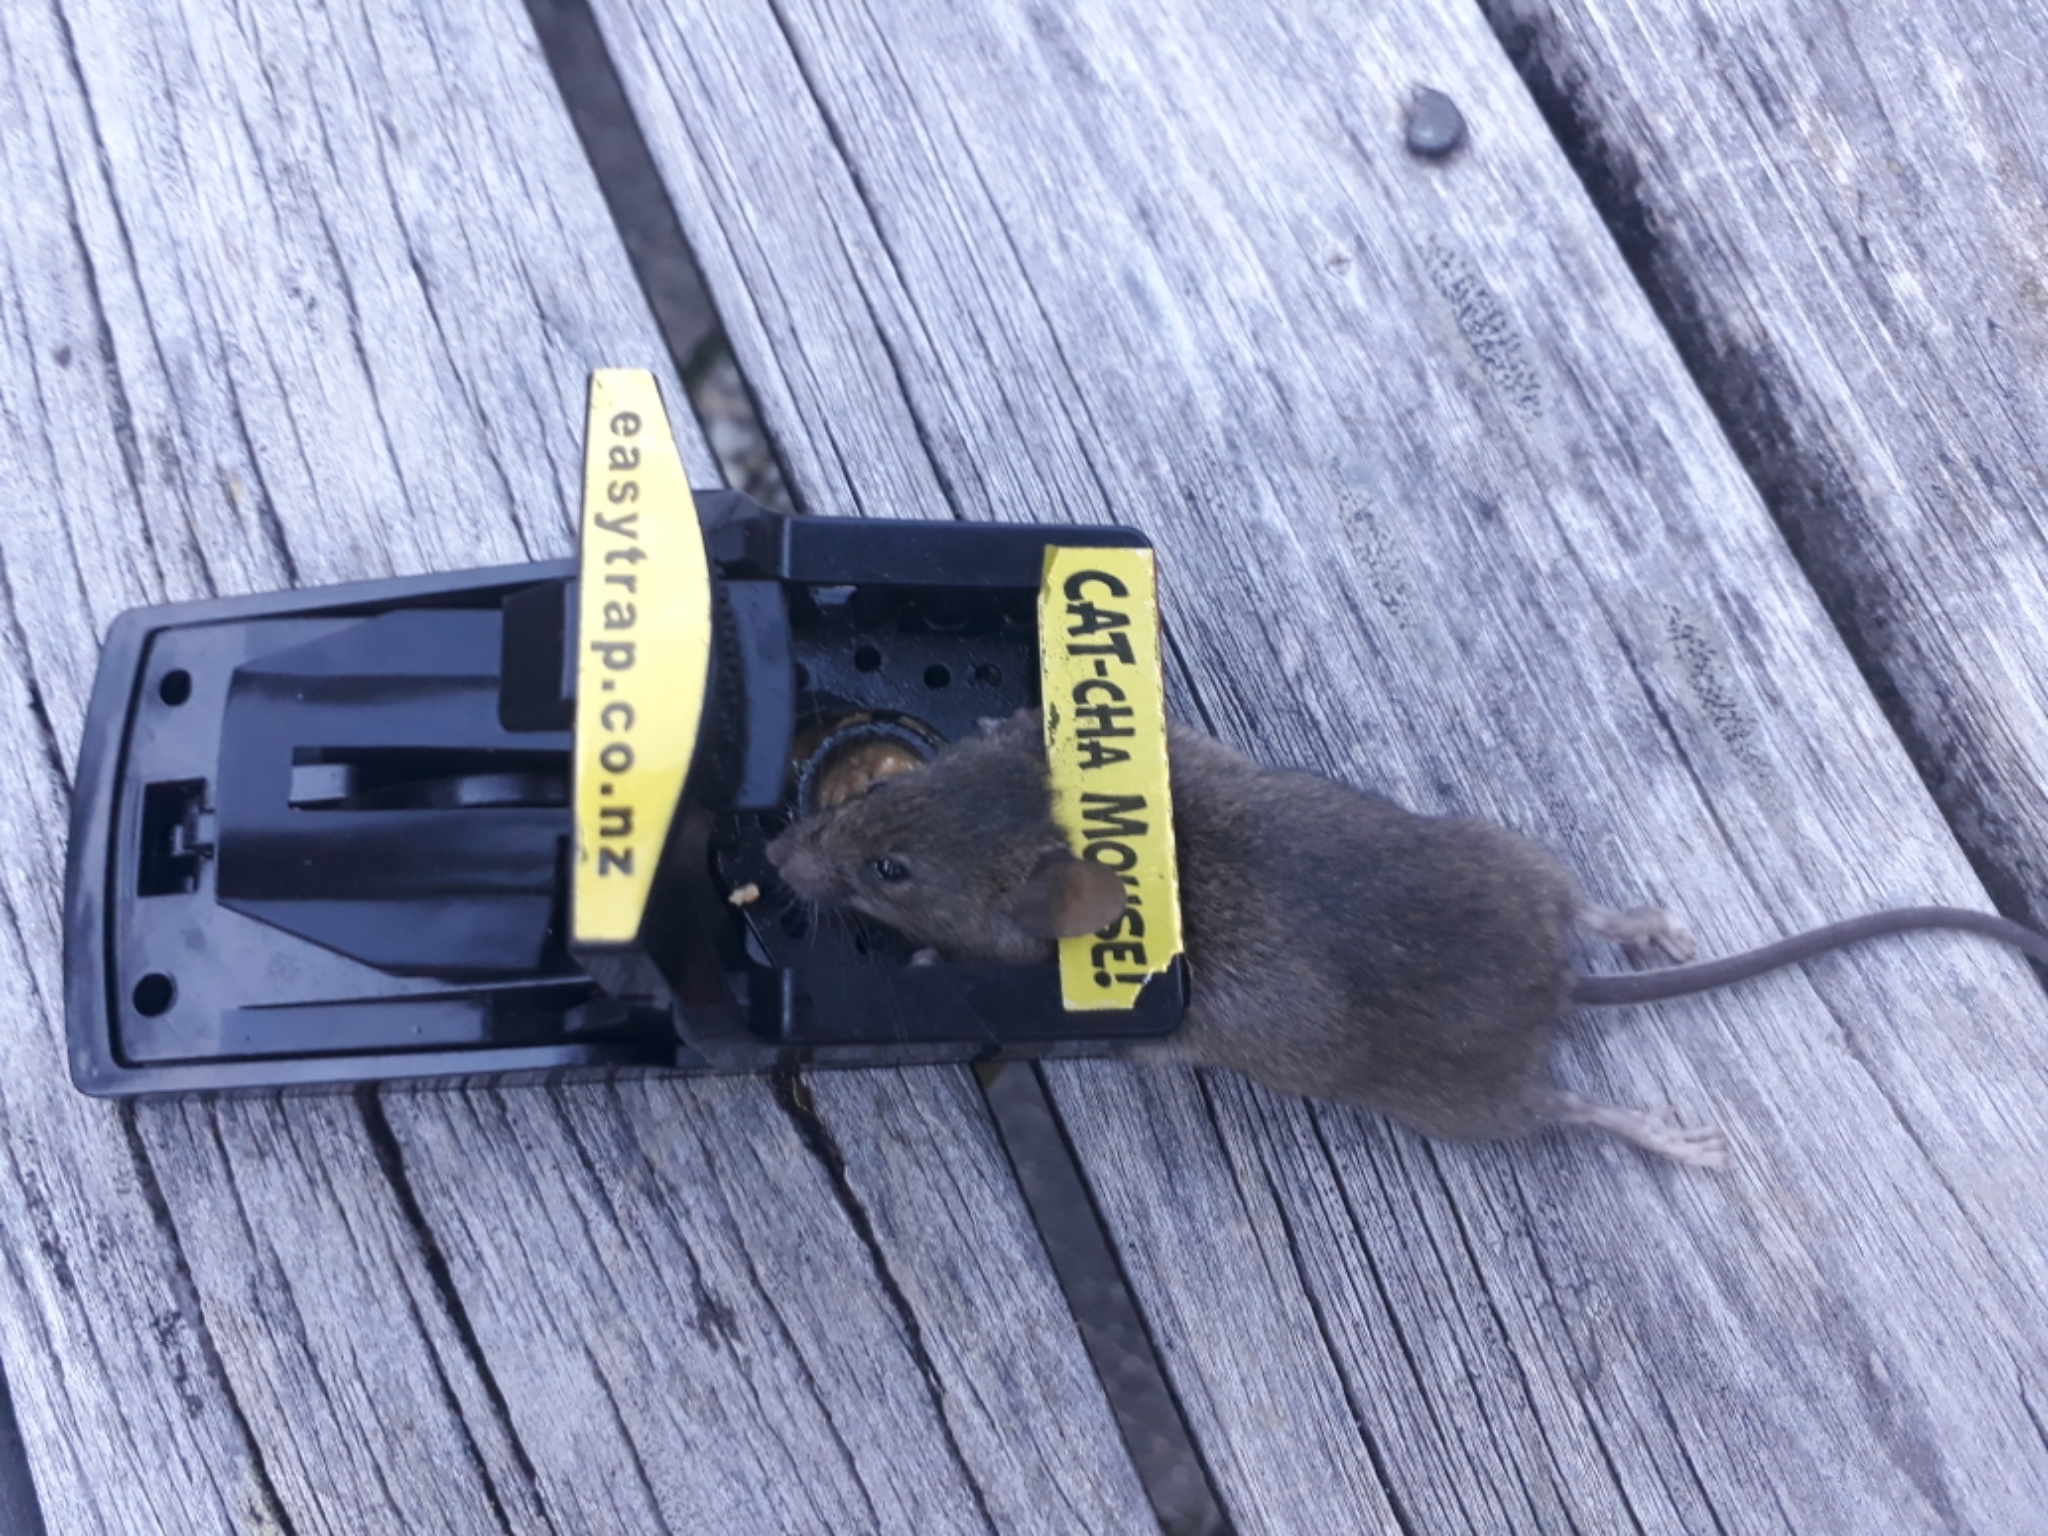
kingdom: Animalia
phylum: Chordata
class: Mammalia
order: Rodentia
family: Muridae
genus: Mus
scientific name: Mus musculus
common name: House mouse
